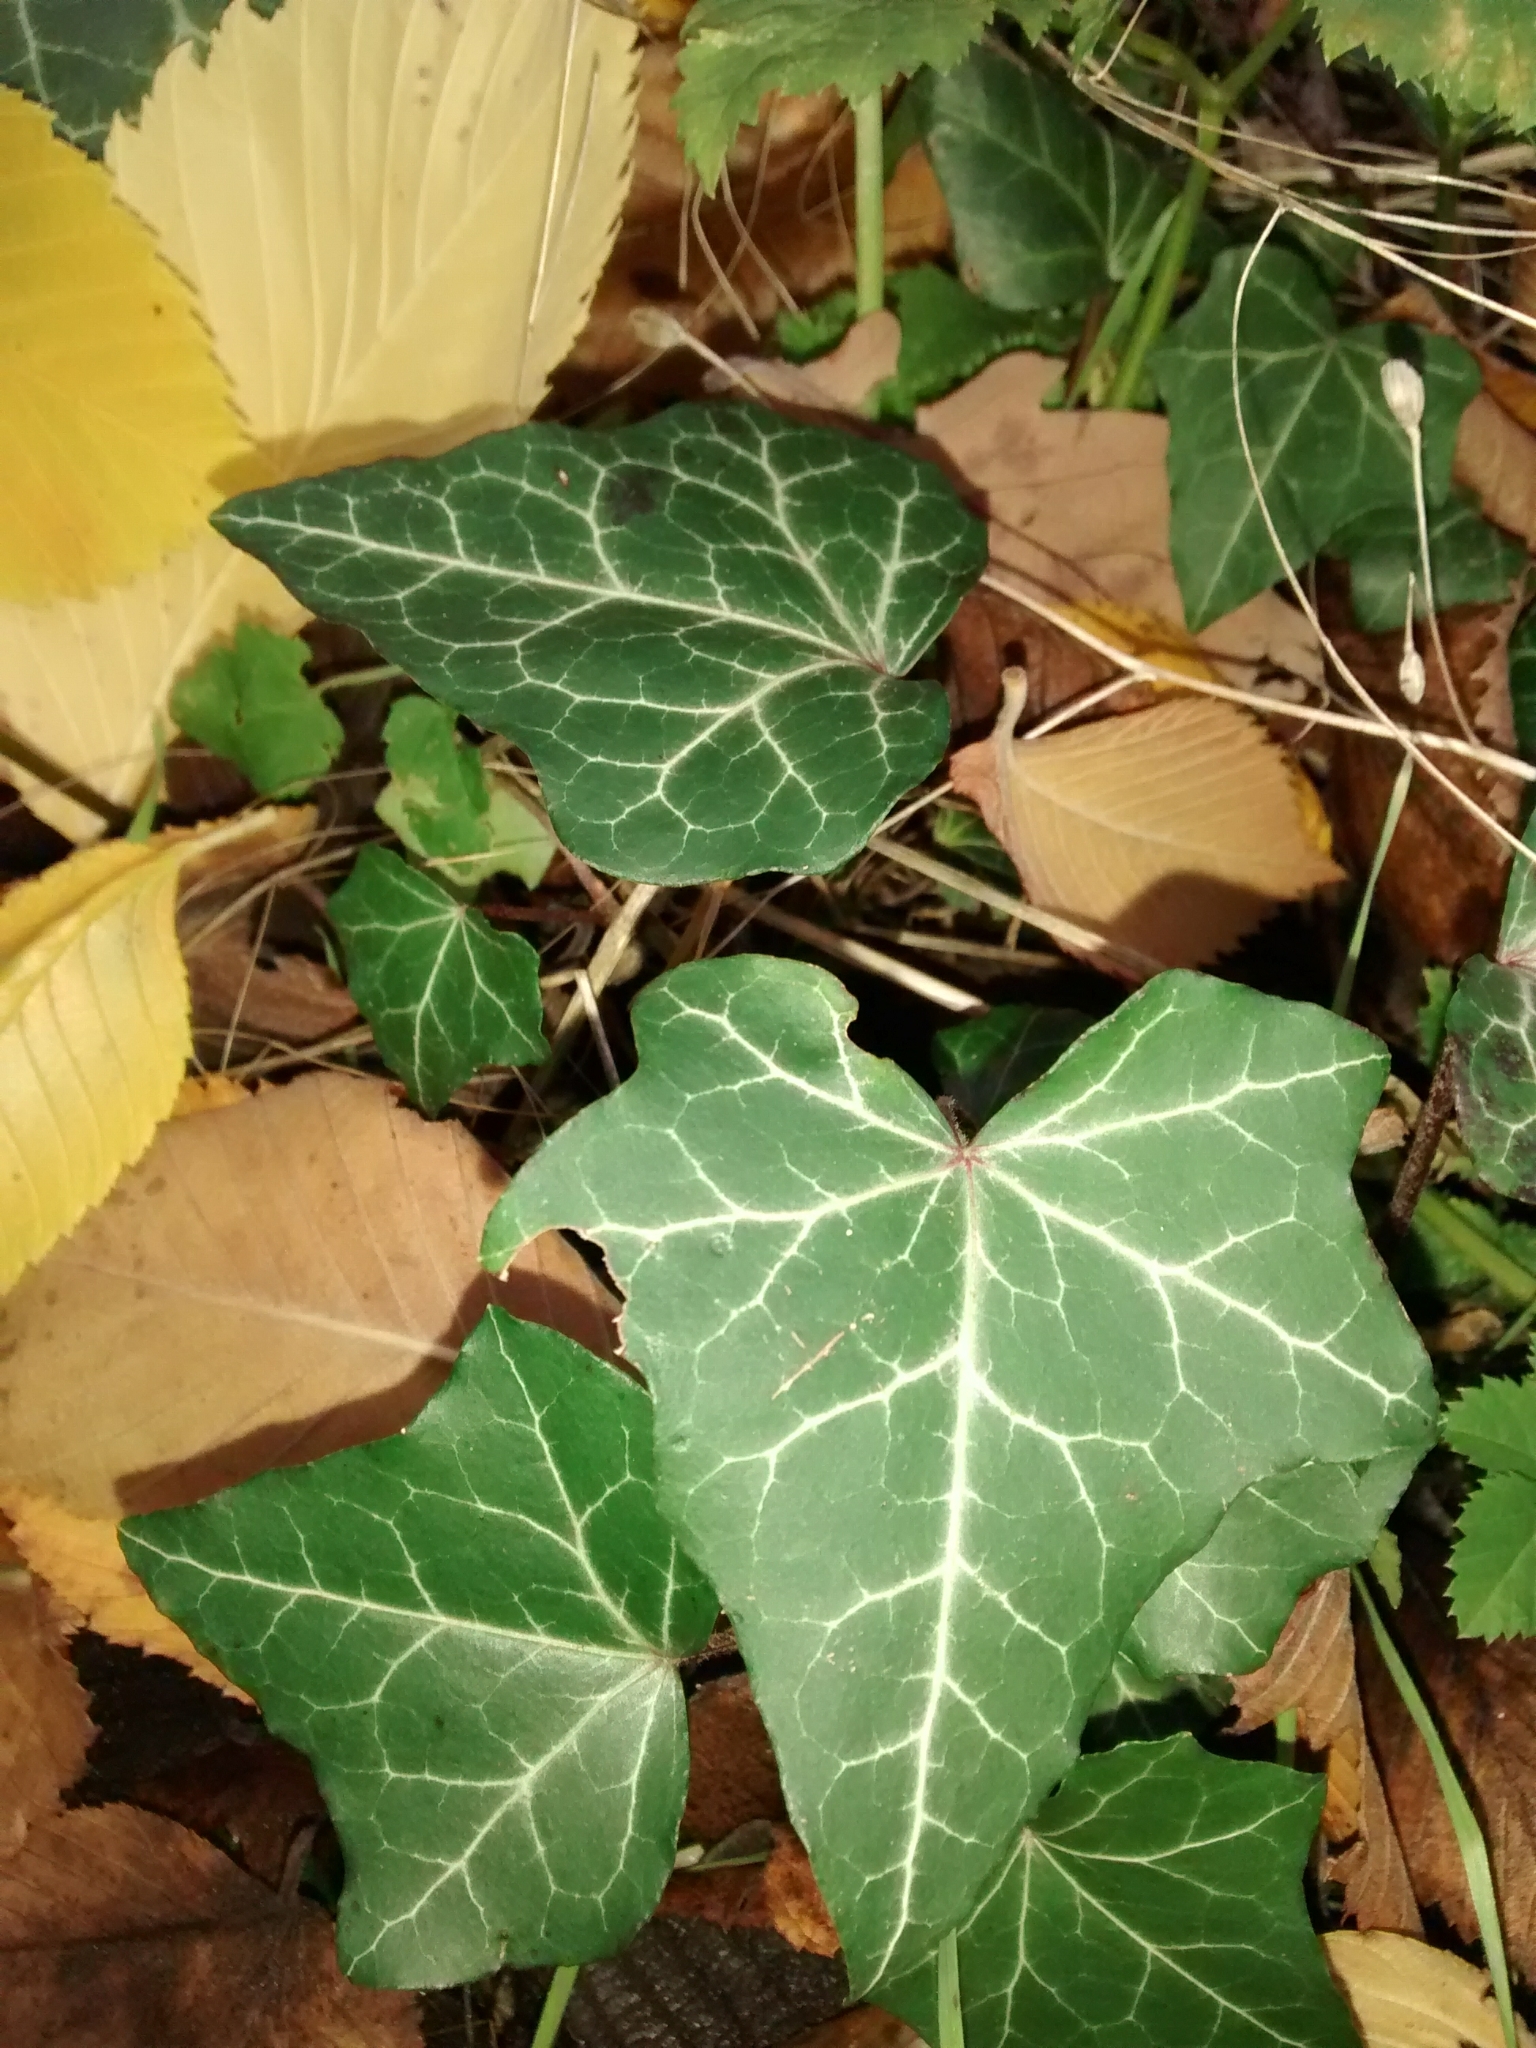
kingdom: Plantae
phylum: Tracheophyta
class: Magnoliopsida
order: Apiales
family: Araliaceae
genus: Hedera
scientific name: Hedera helix
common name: Ivy
